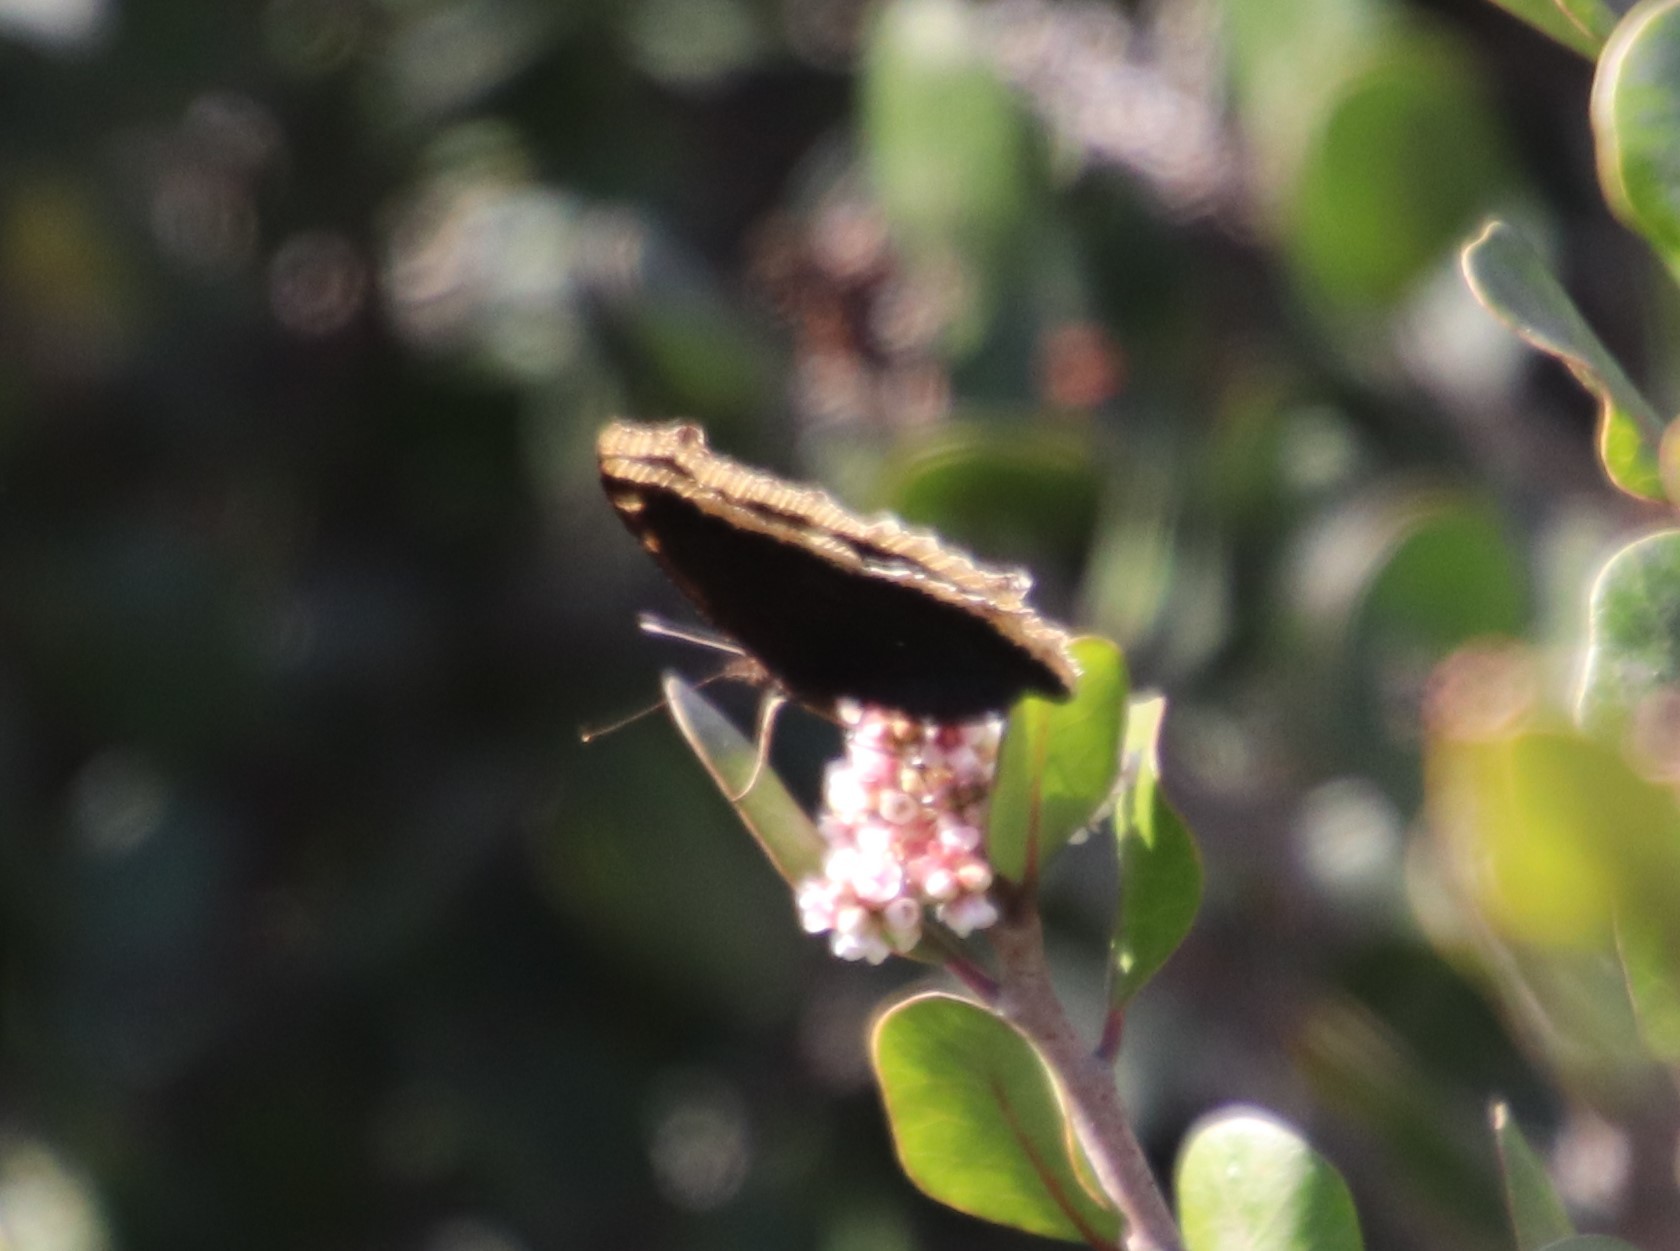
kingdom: Animalia
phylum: Arthropoda
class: Insecta
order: Lepidoptera
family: Nymphalidae
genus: Nymphalis
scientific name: Nymphalis antiopa
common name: Camberwell beauty
